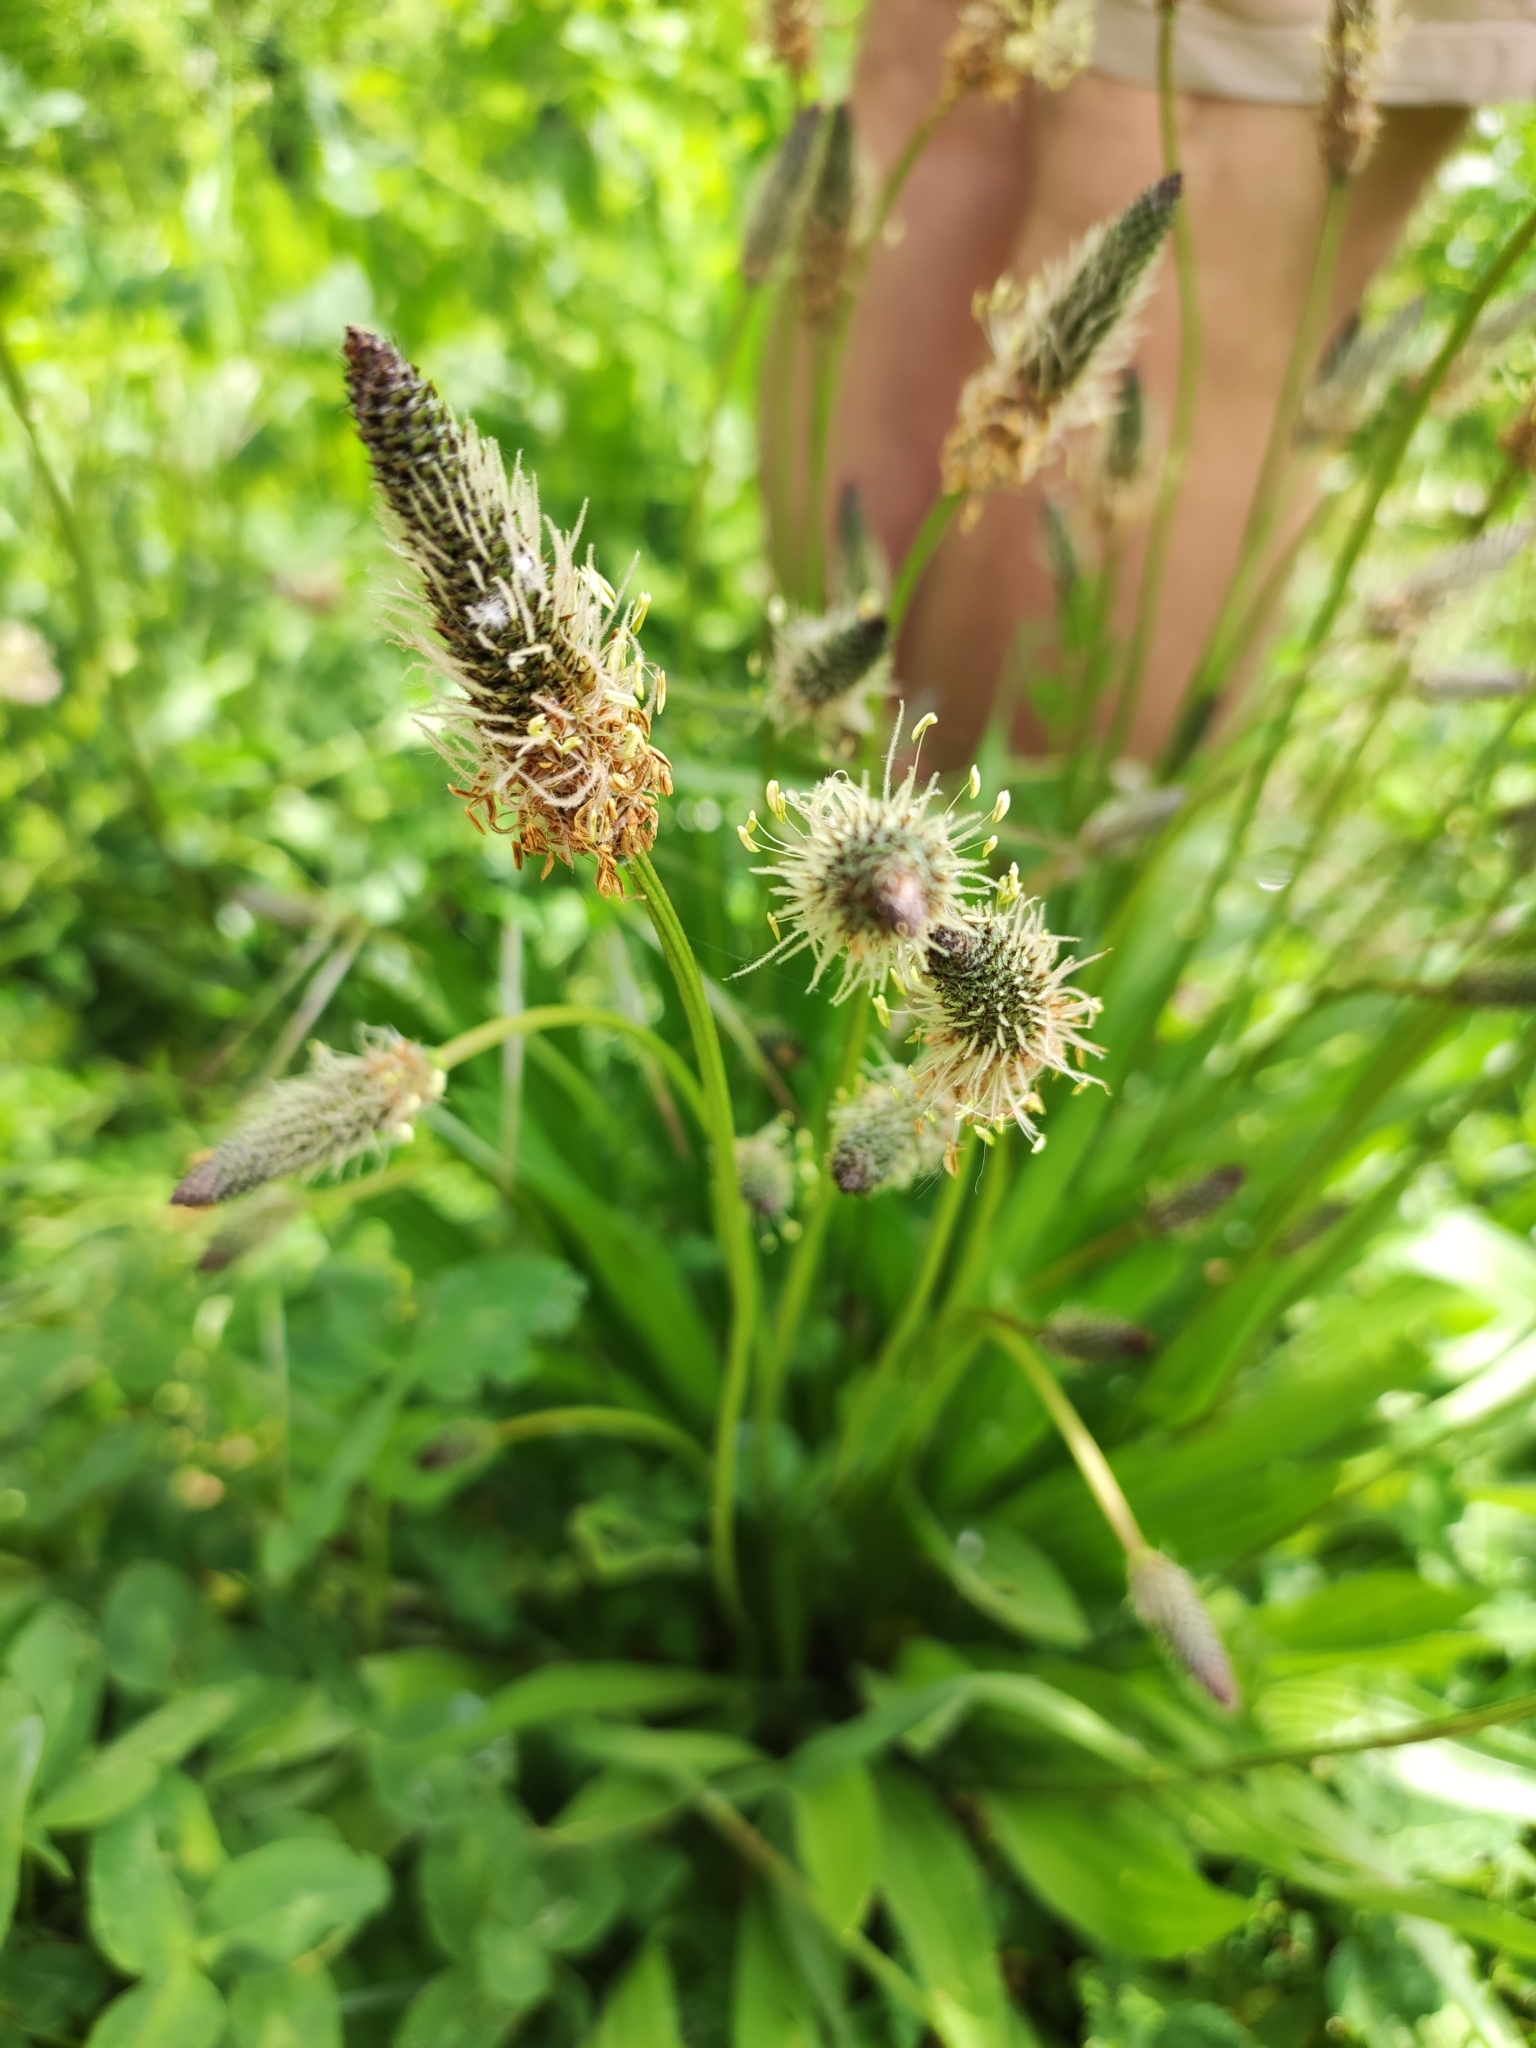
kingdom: Plantae
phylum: Tracheophyta
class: Magnoliopsida
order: Lamiales
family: Plantaginaceae
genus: Plantago
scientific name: Plantago lanceolata
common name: Ribwort plantain
